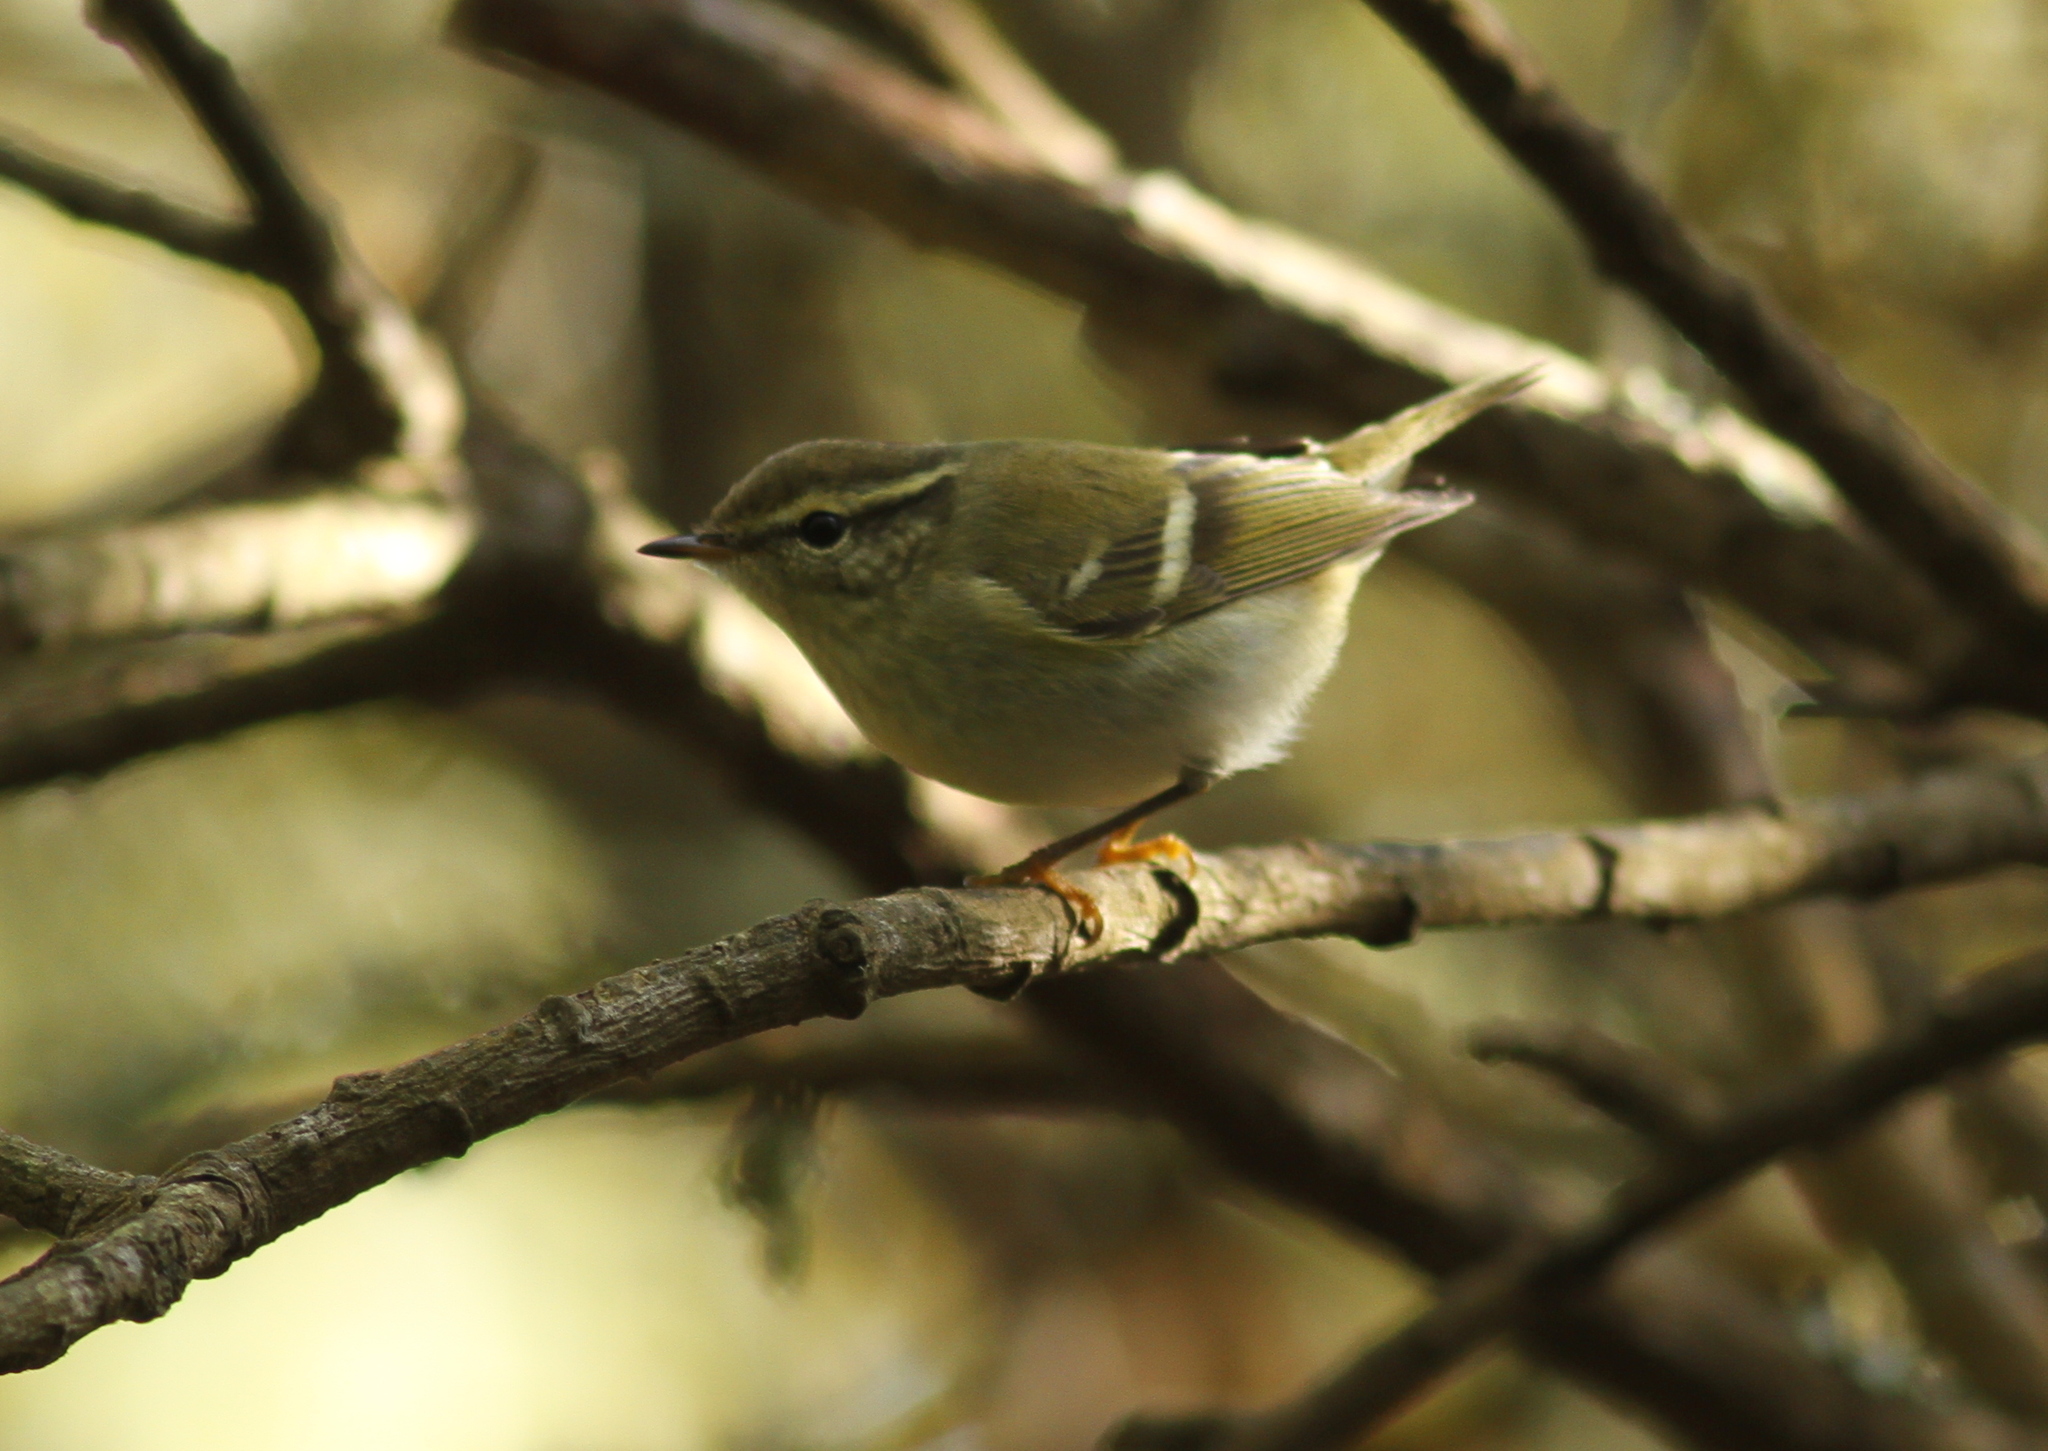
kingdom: Animalia
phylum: Chordata
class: Aves
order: Passeriformes
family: Phylloscopidae
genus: Phylloscopus
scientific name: Phylloscopus inornatus
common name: Yellow-browed warbler
